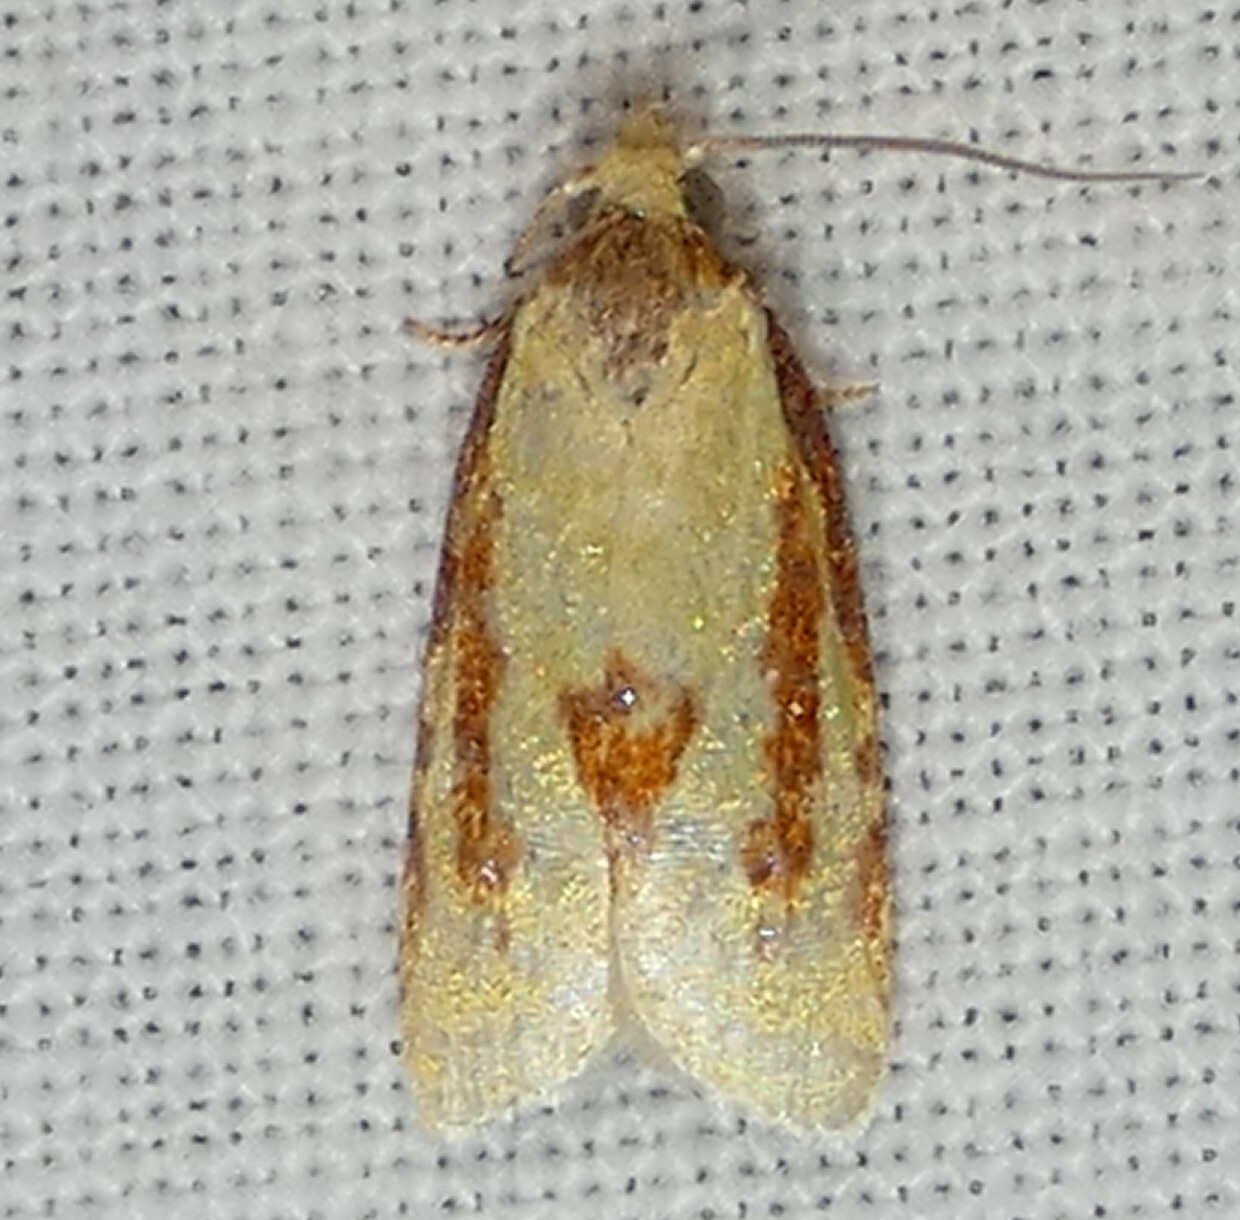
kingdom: Animalia
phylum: Arthropoda
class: Insecta
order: Lepidoptera
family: Tortricidae
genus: Sparganothis
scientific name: Sparganothis bistriata
